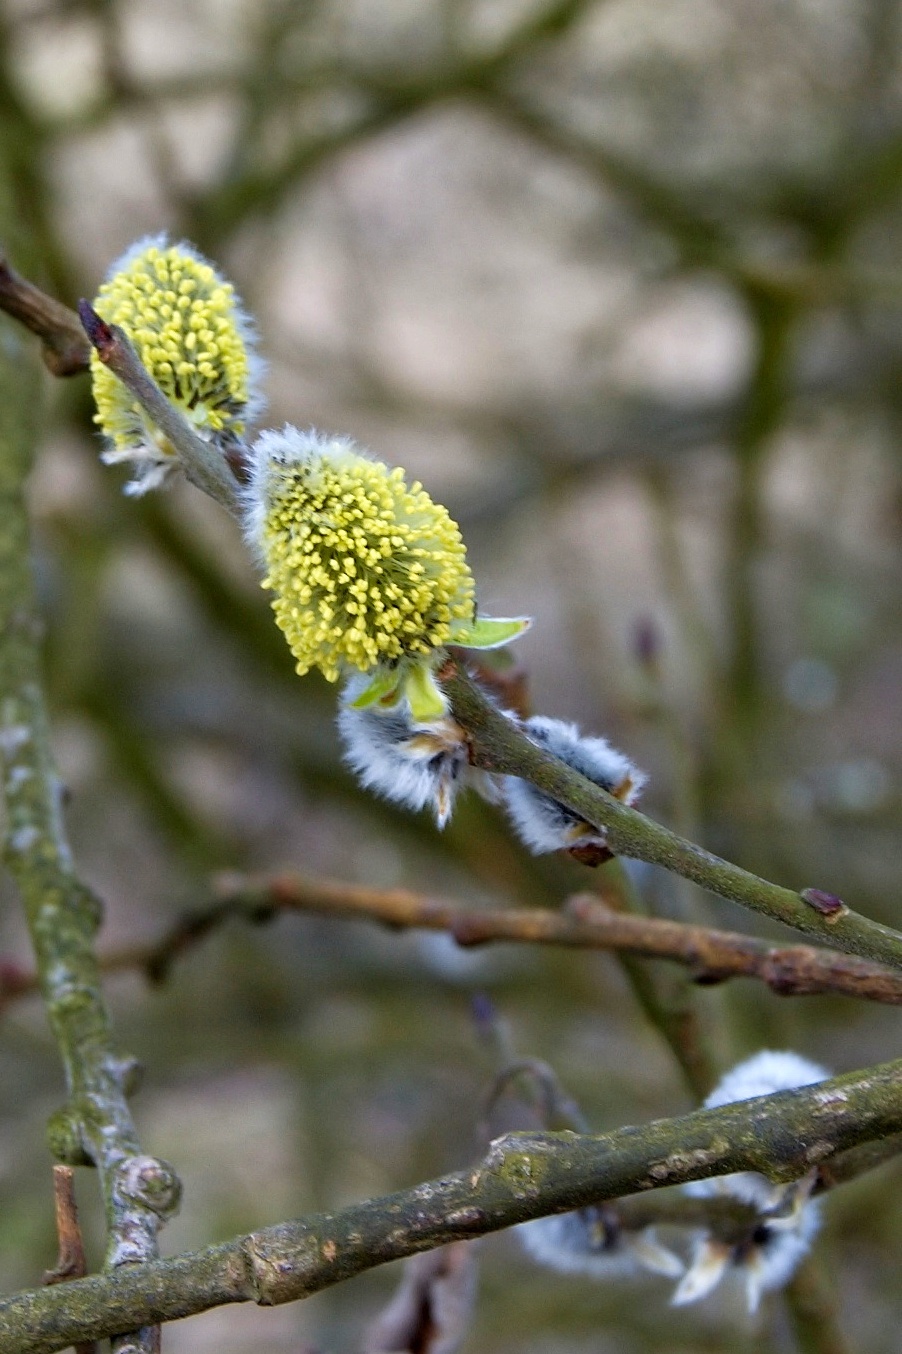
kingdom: Plantae
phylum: Tracheophyta
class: Magnoliopsida
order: Malpighiales
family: Salicaceae
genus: Salix
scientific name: Salix caprea
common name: Goat willow
